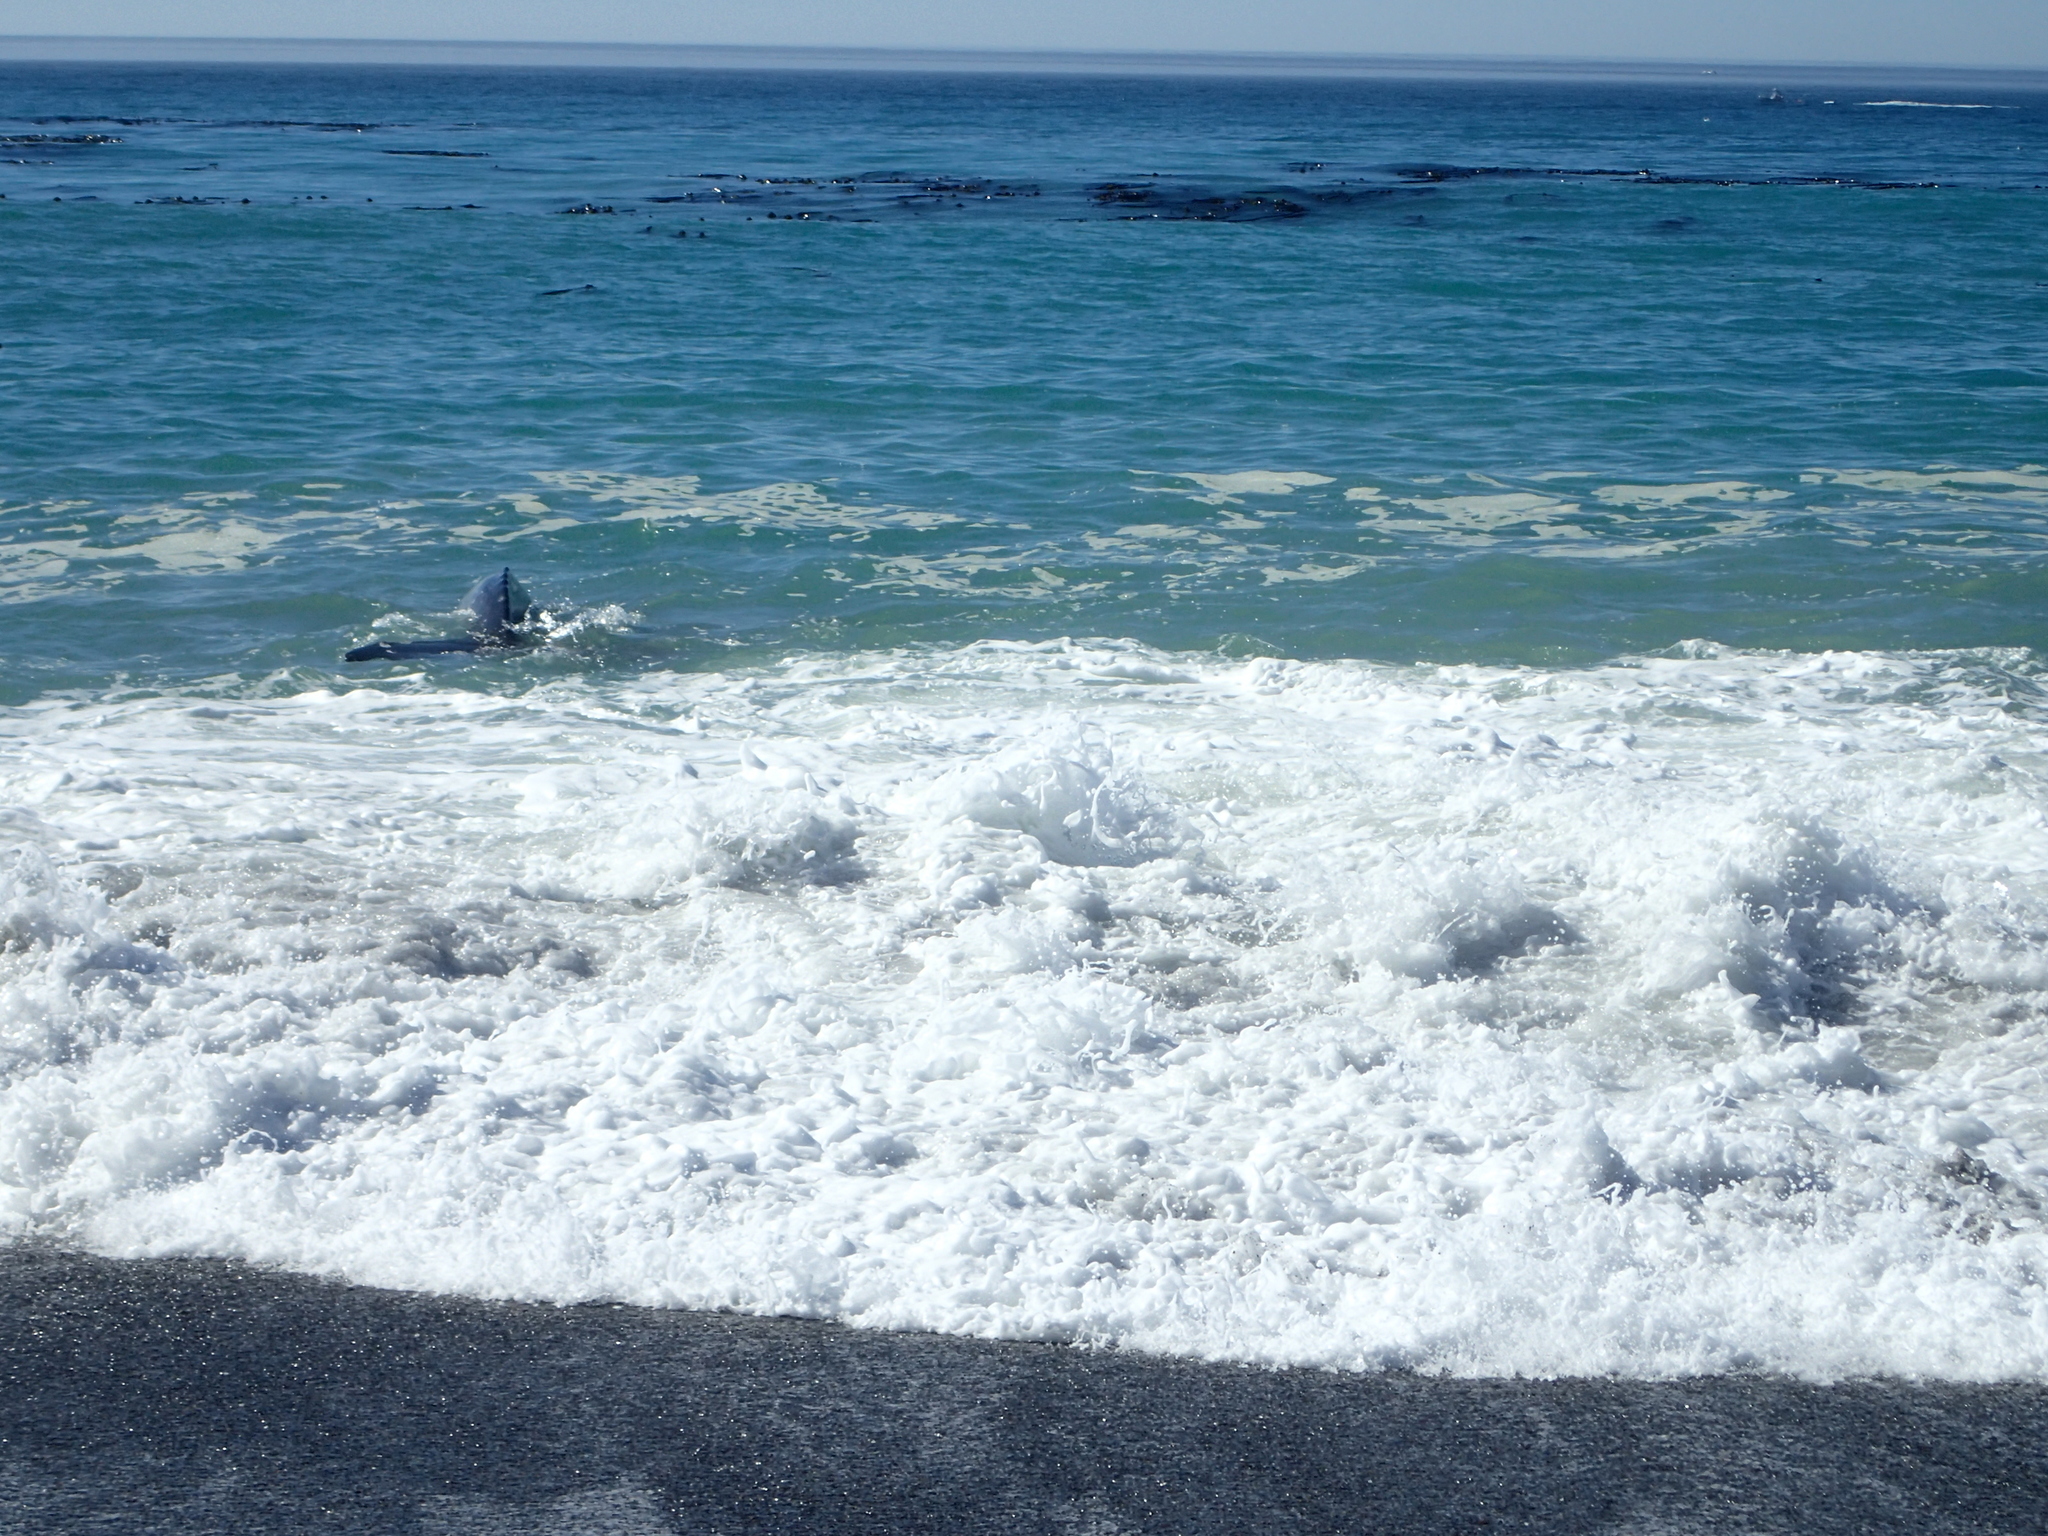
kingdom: Animalia
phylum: Chordata
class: Mammalia
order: Cetacea
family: Eschrichtiidae
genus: Eschrichtius
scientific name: Eschrichtius robustus
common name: Gray whale
